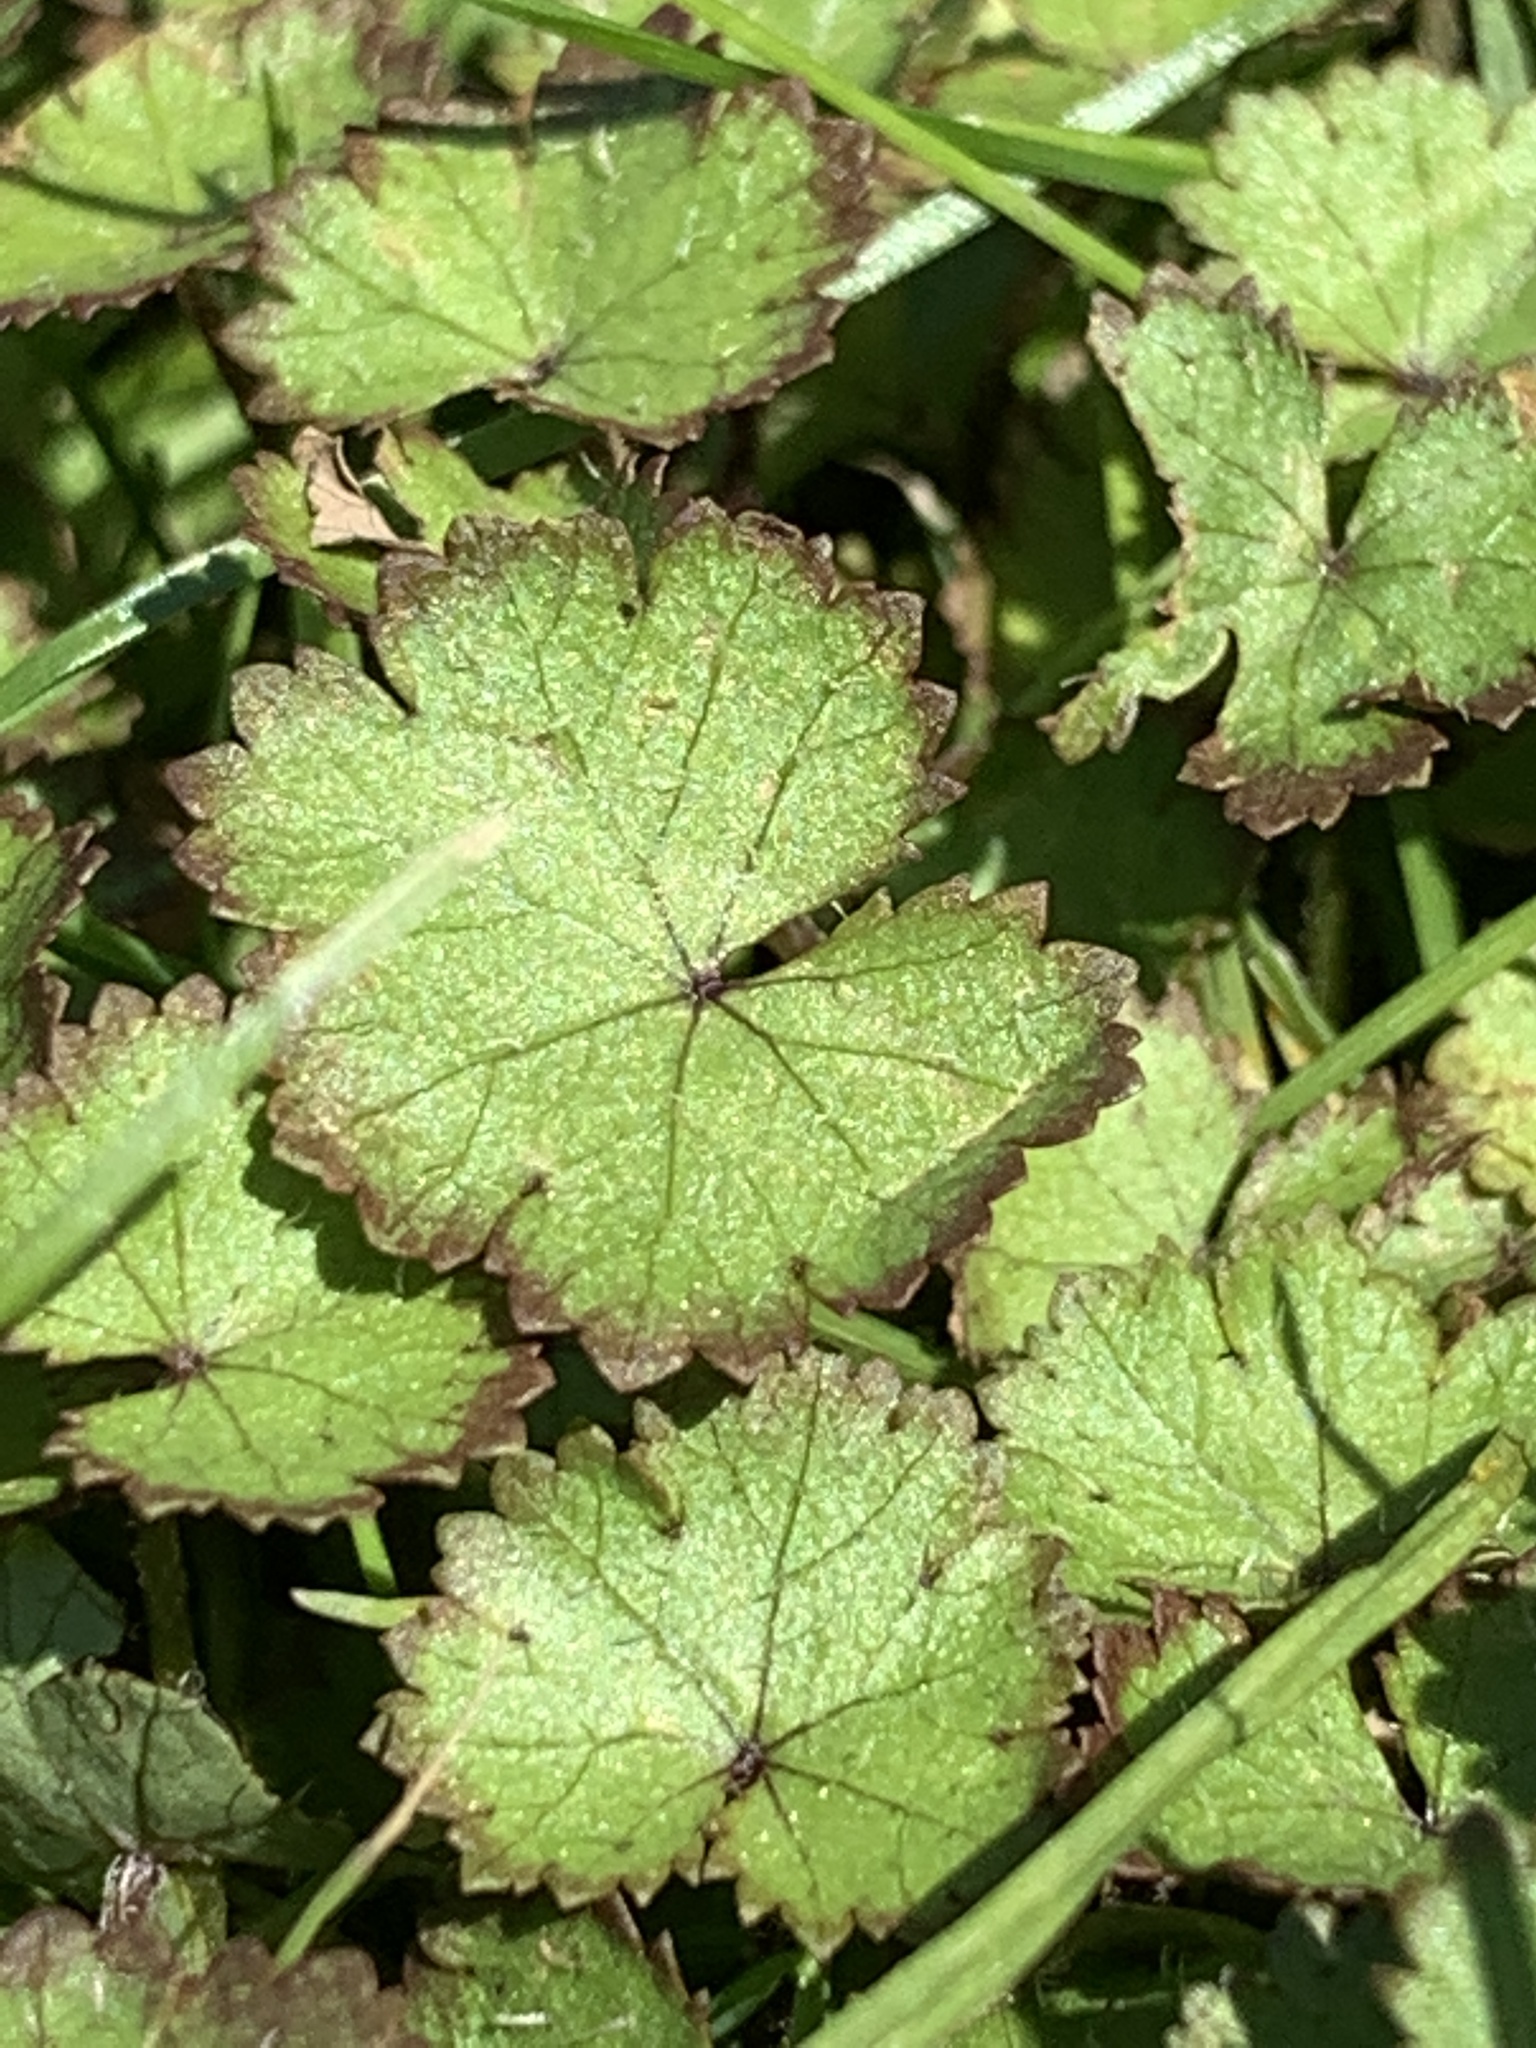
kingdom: Plantae
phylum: Tracheophyta
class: Magnoliopsida
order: Apiales
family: Araliaceae
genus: Hydrocotyle
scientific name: Hydrocotyle moschata
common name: Hairy pennywort
